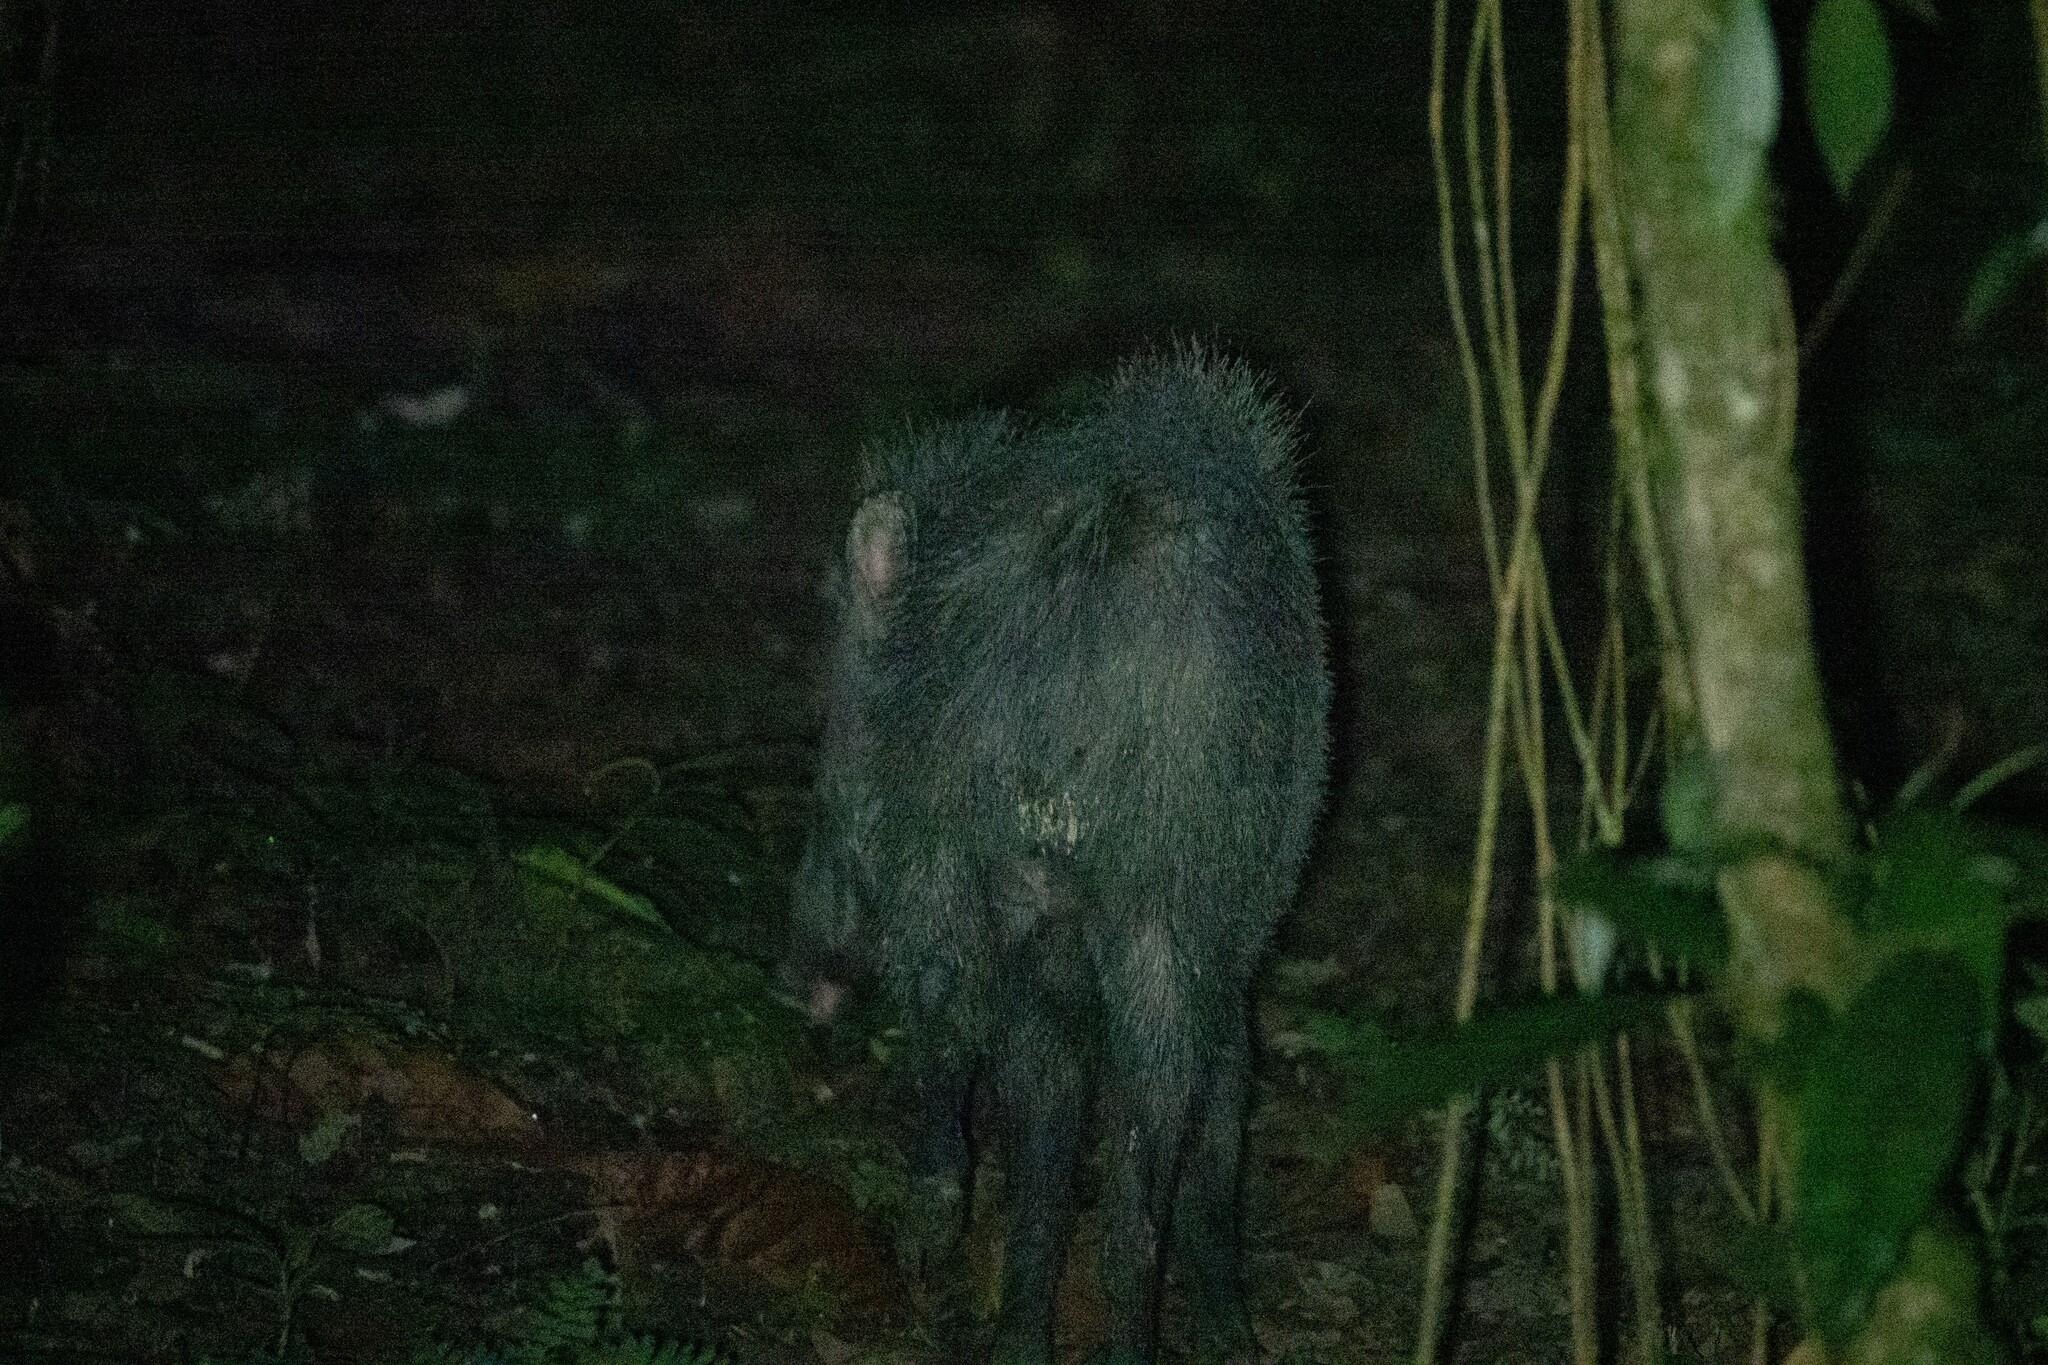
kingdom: Animalia
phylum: Chordata
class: Mammalia
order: Artiodactyla
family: Tayassuidae
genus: Pecari
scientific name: Pecari tajacu
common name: Collared peccary
